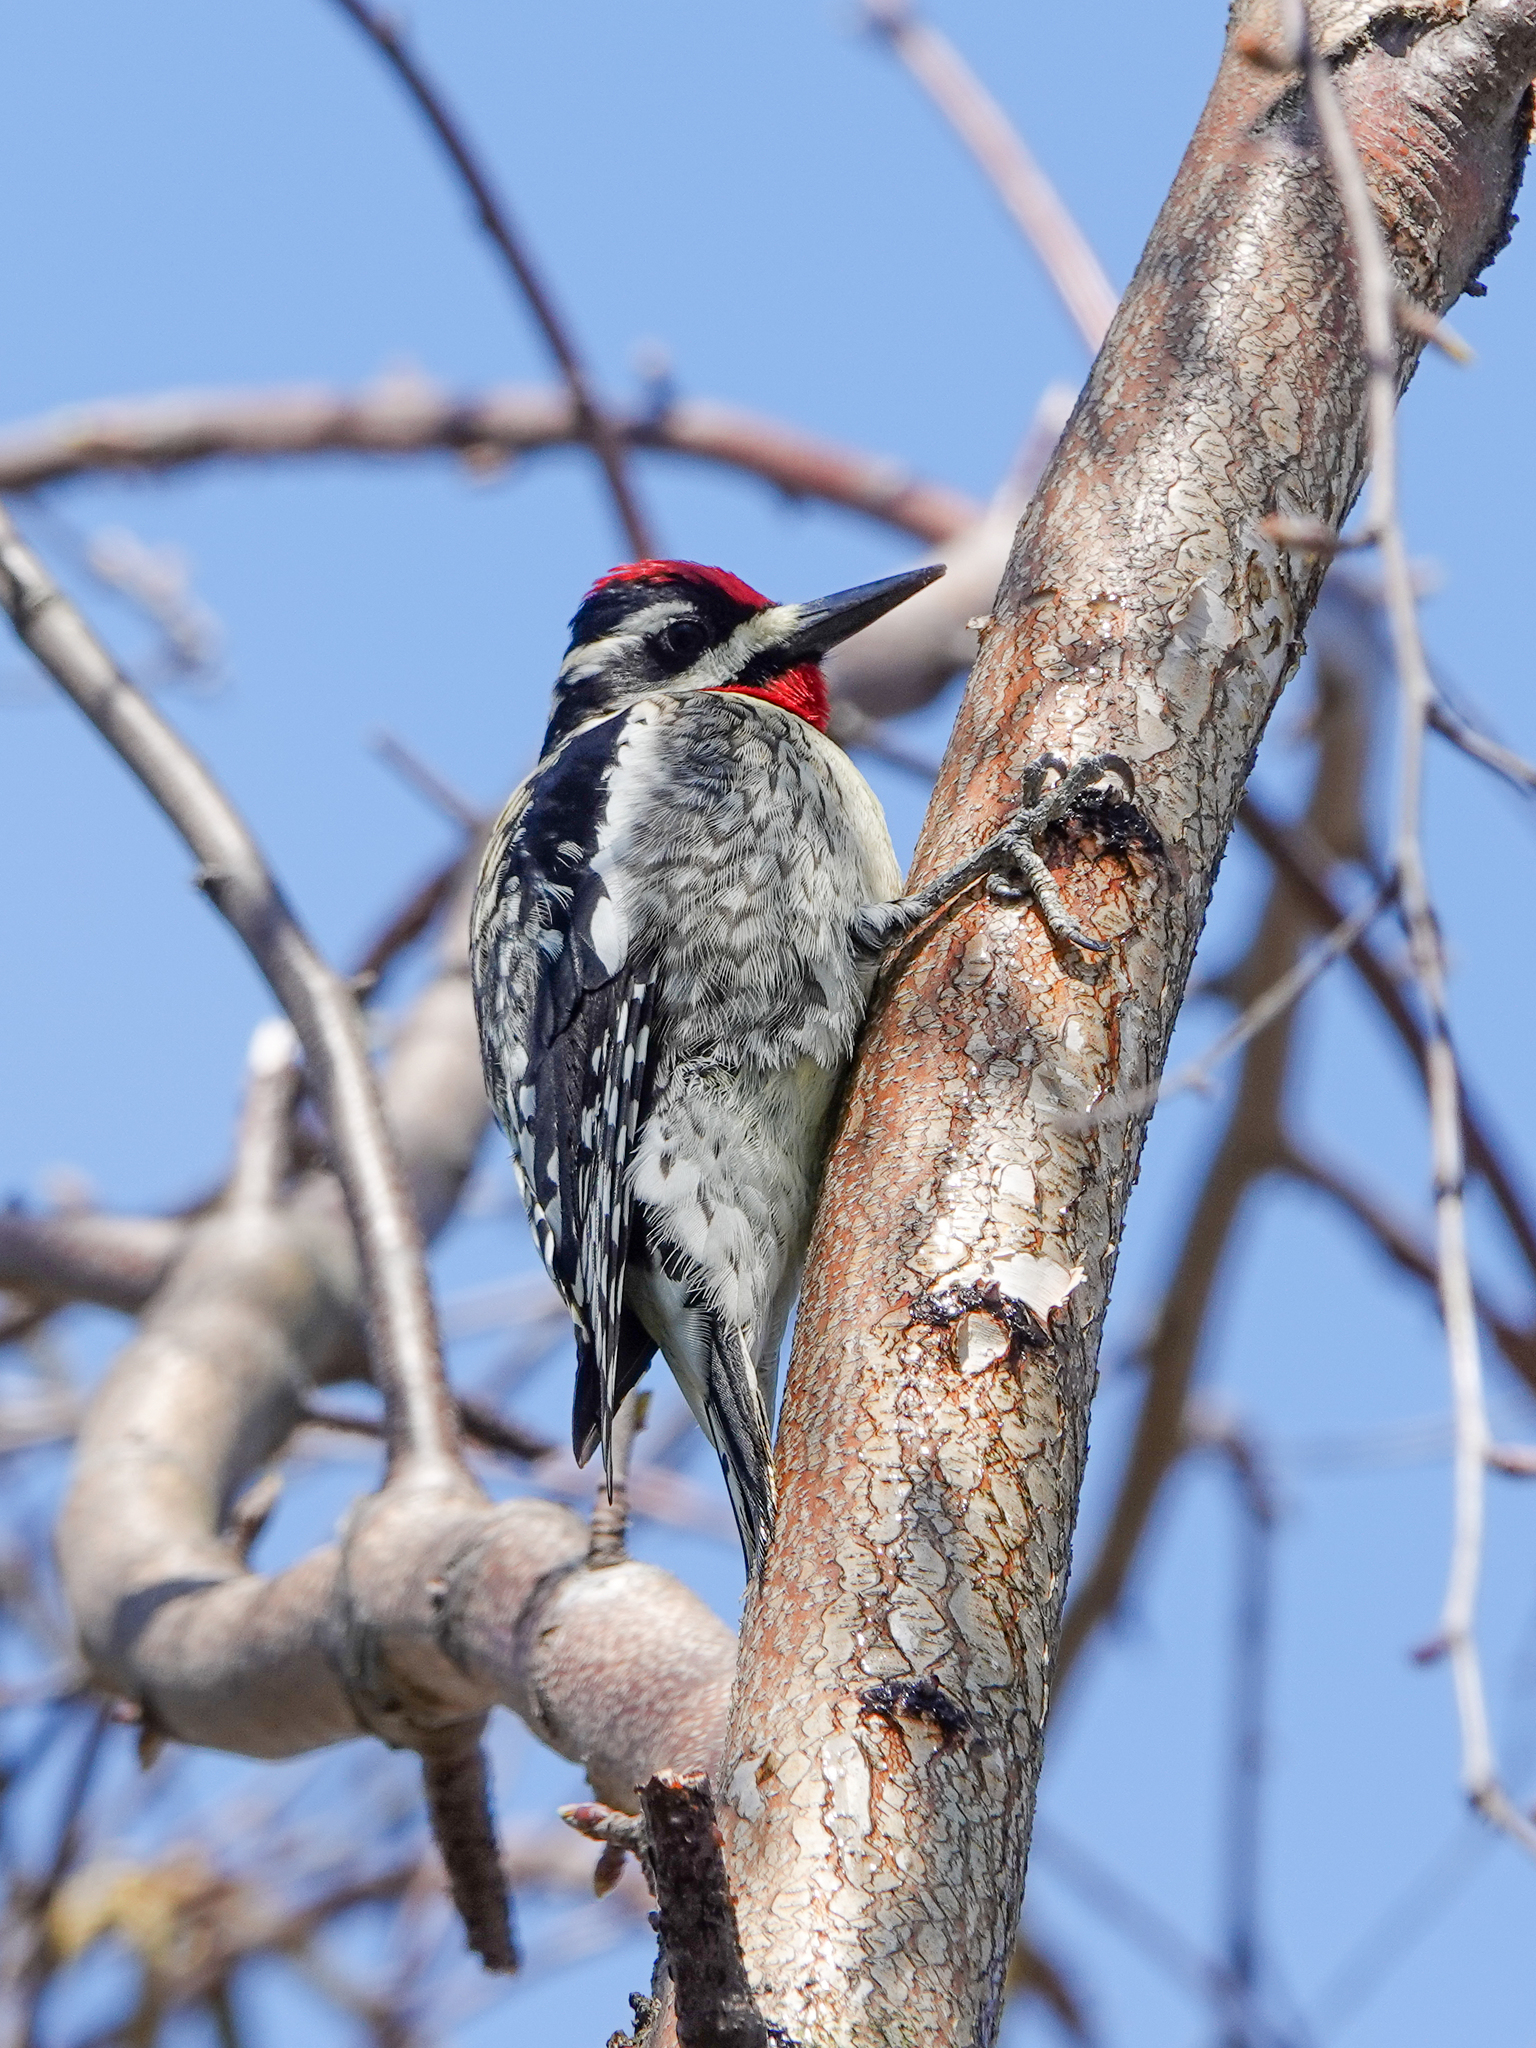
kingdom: Animalia
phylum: Chordata
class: Aves
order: Piciformes
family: Picidae
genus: Sphyrapicus
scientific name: Sphyrapicus varius
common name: Yellow-bellied sapsucker
